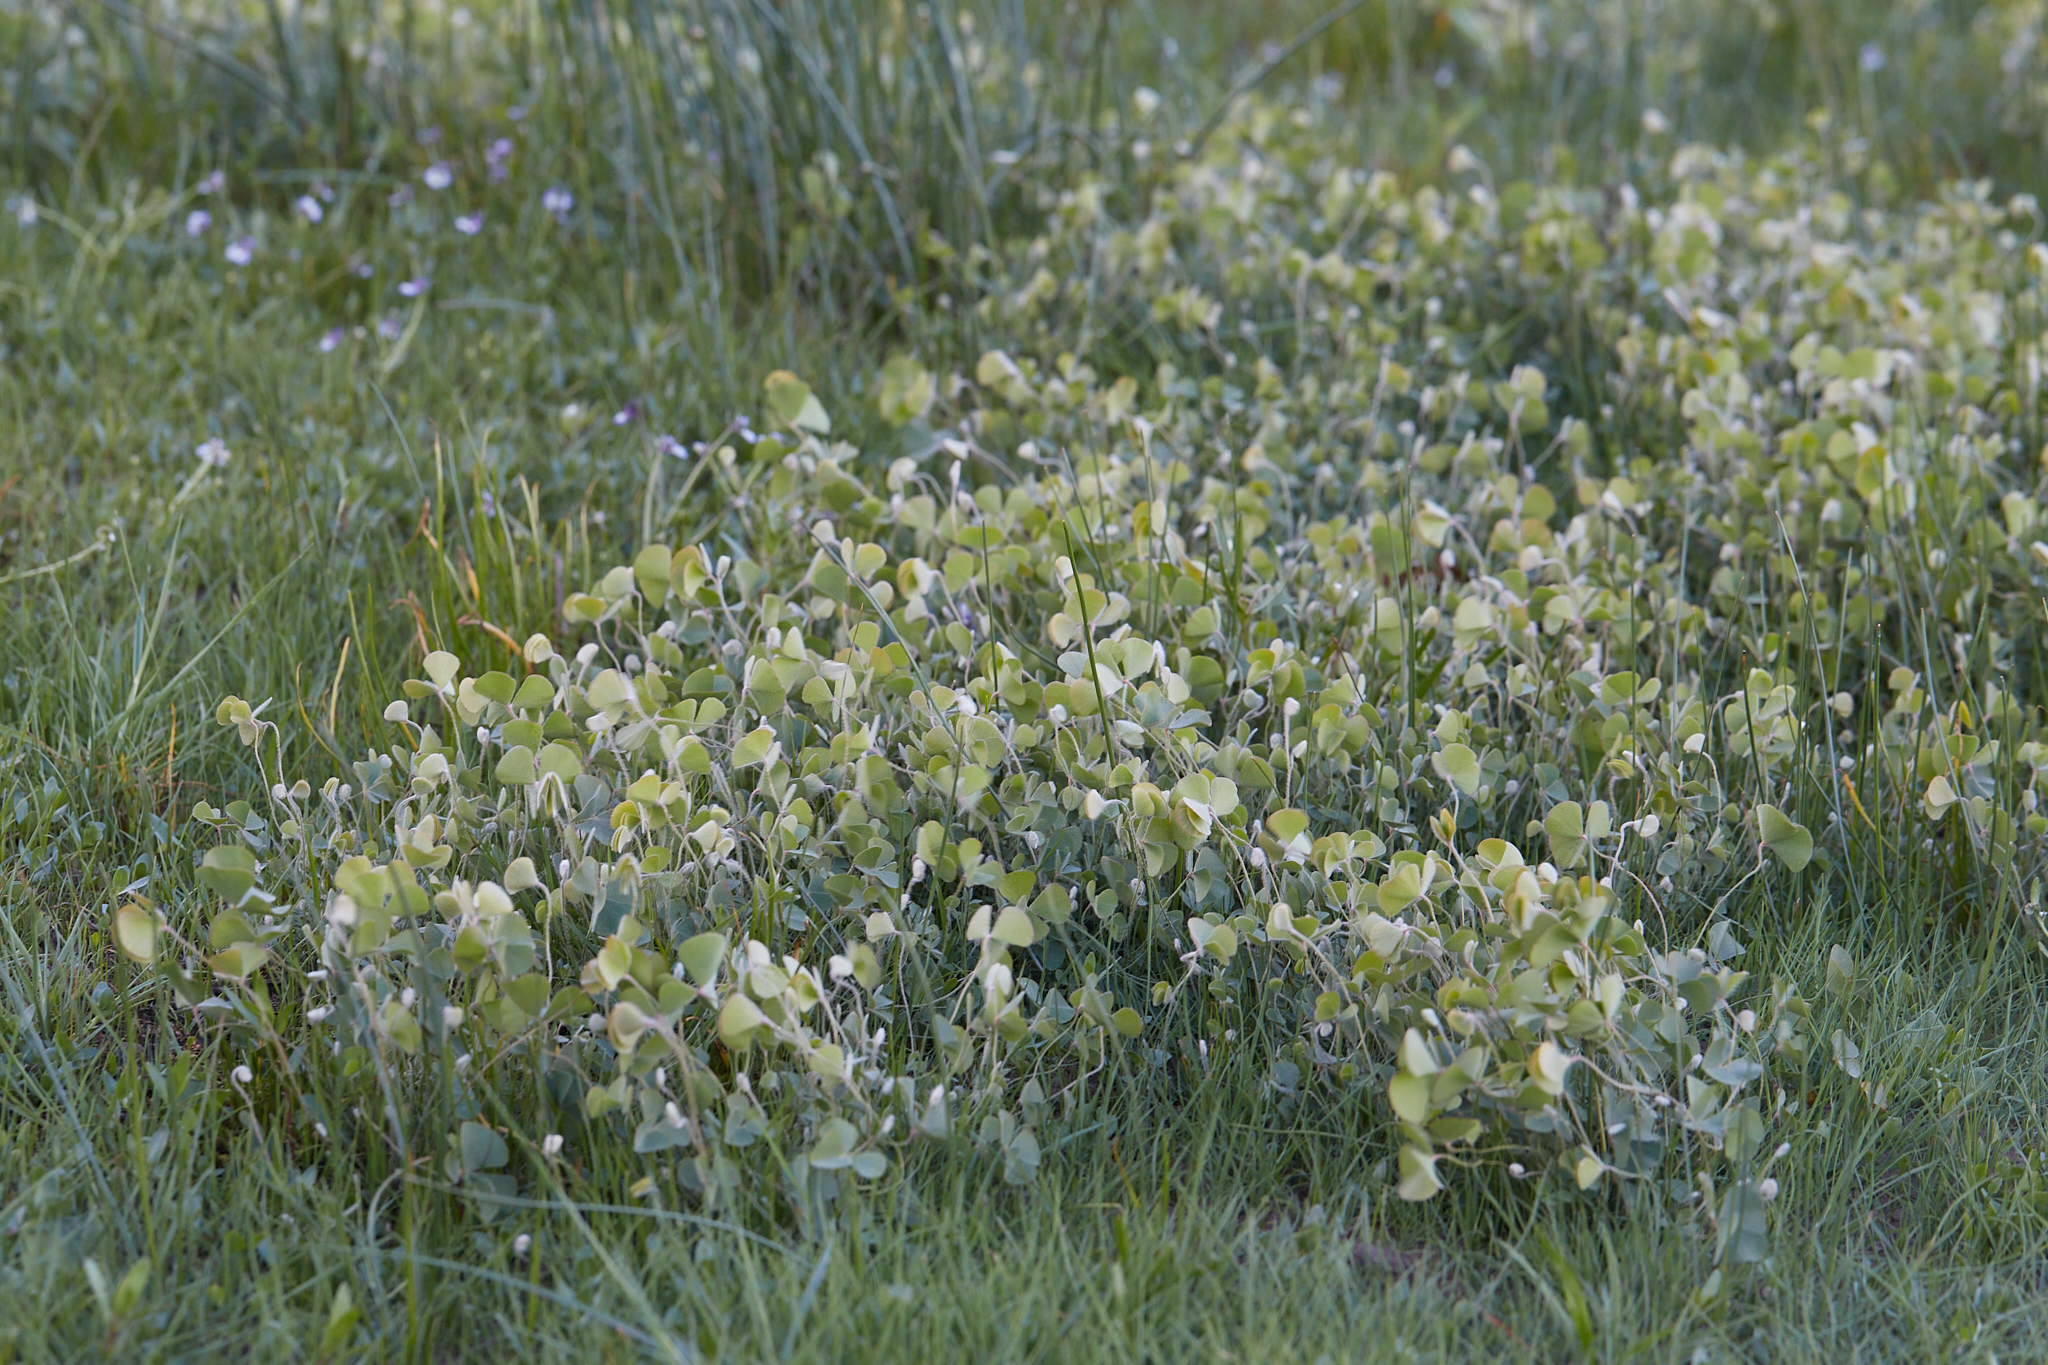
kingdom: Plantae
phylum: Tracheophyta
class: Polypodiopsida
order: Salviniales
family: Marsileaceae
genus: Marsilea
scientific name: Marsilea vestita
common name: Hooked-pepperwort
